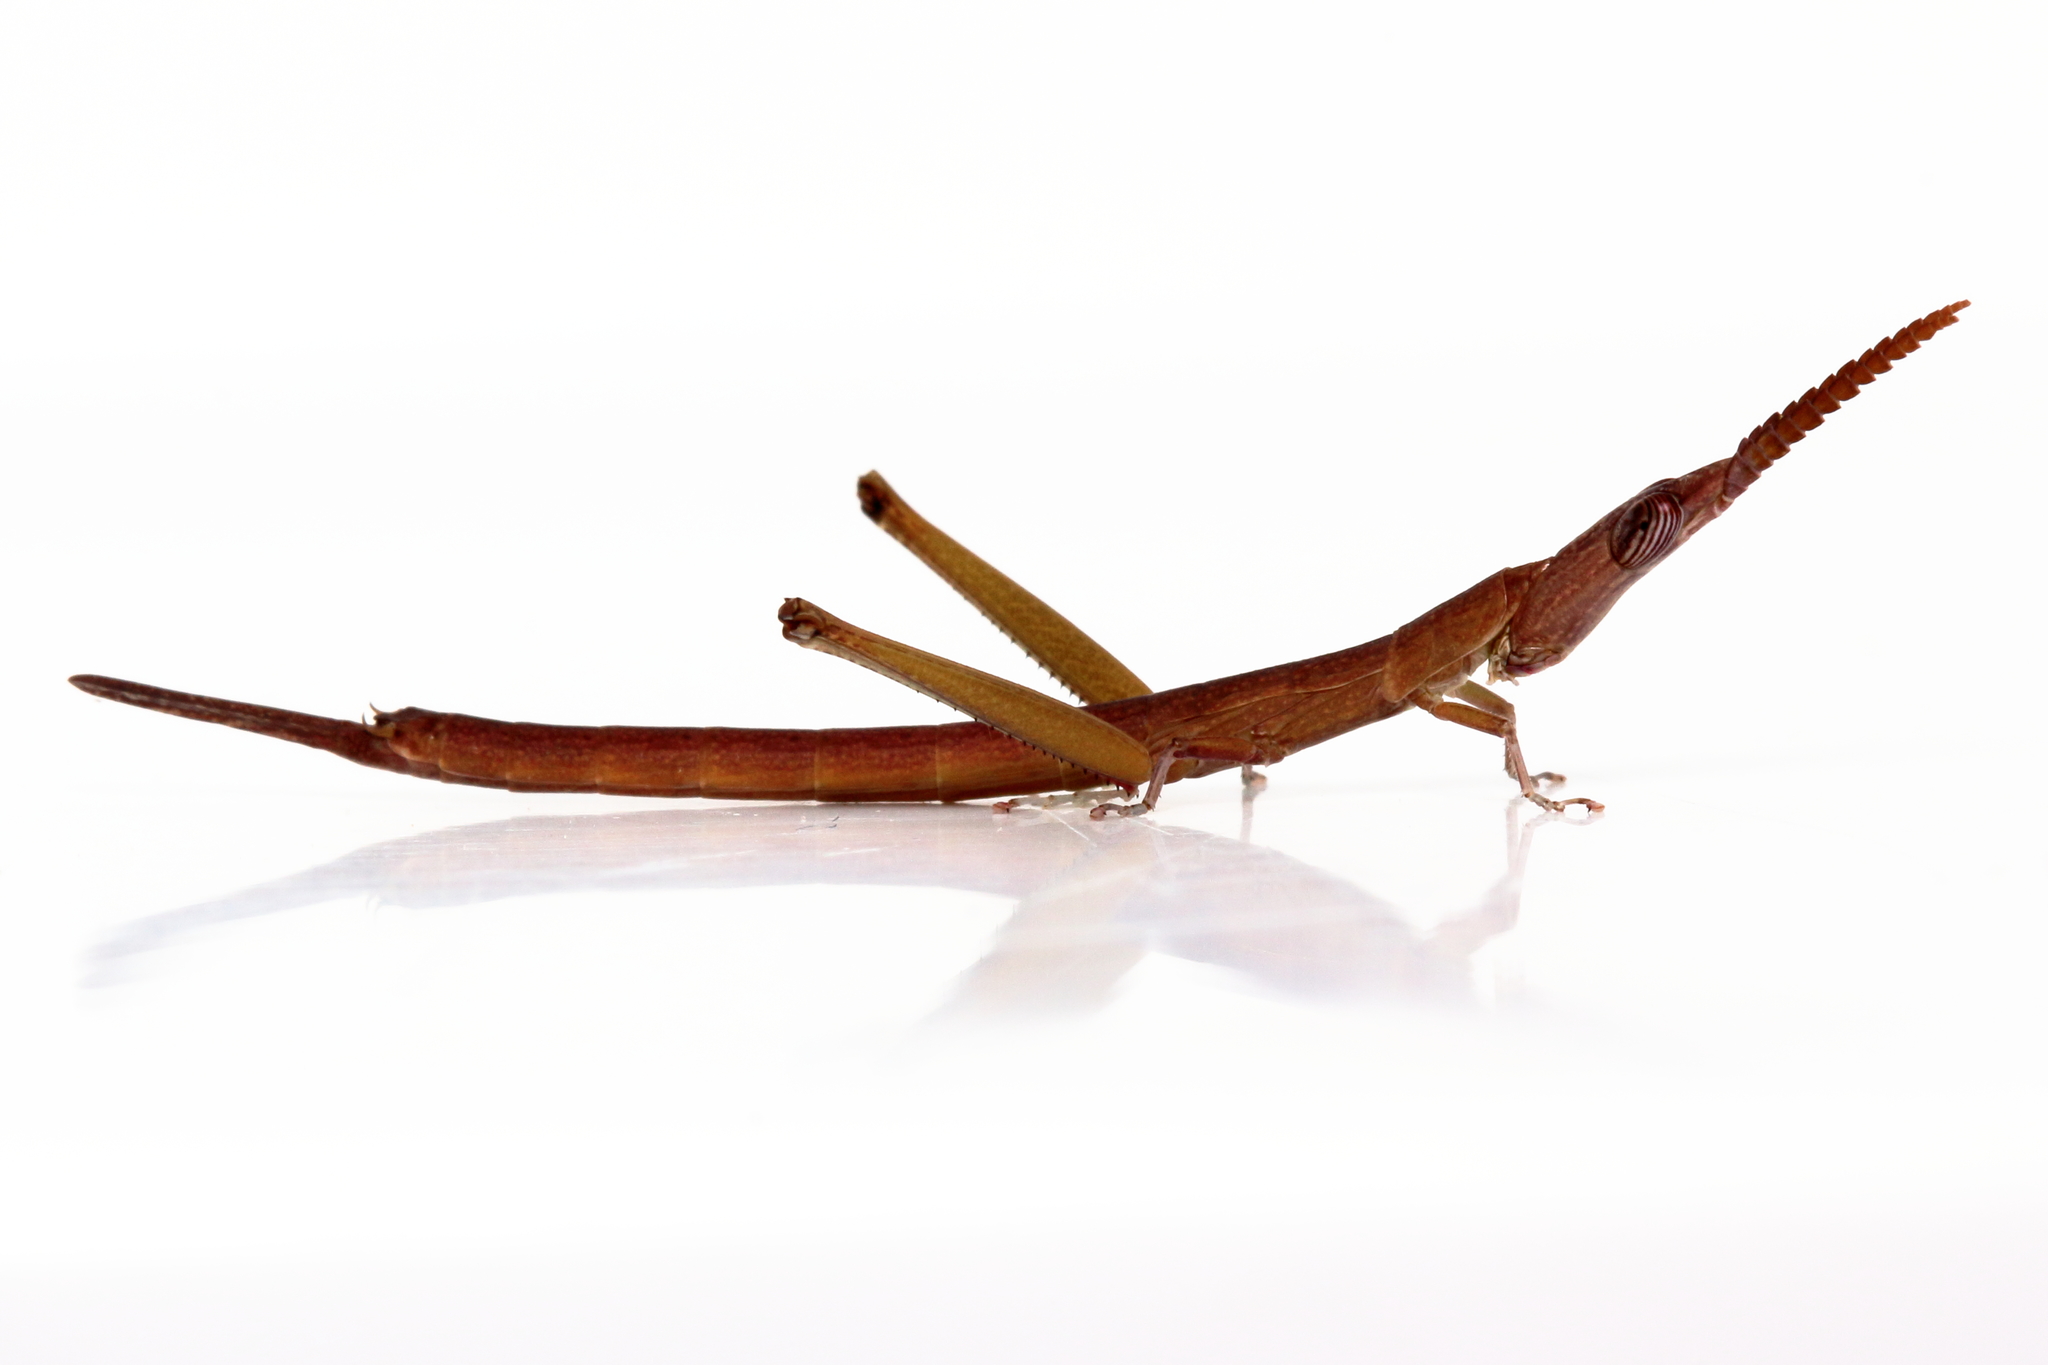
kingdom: Animalia
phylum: Arthropoda
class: Insecta
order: Orthoptera
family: Morabidae
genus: Warramaba
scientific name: Warramaba grandis
